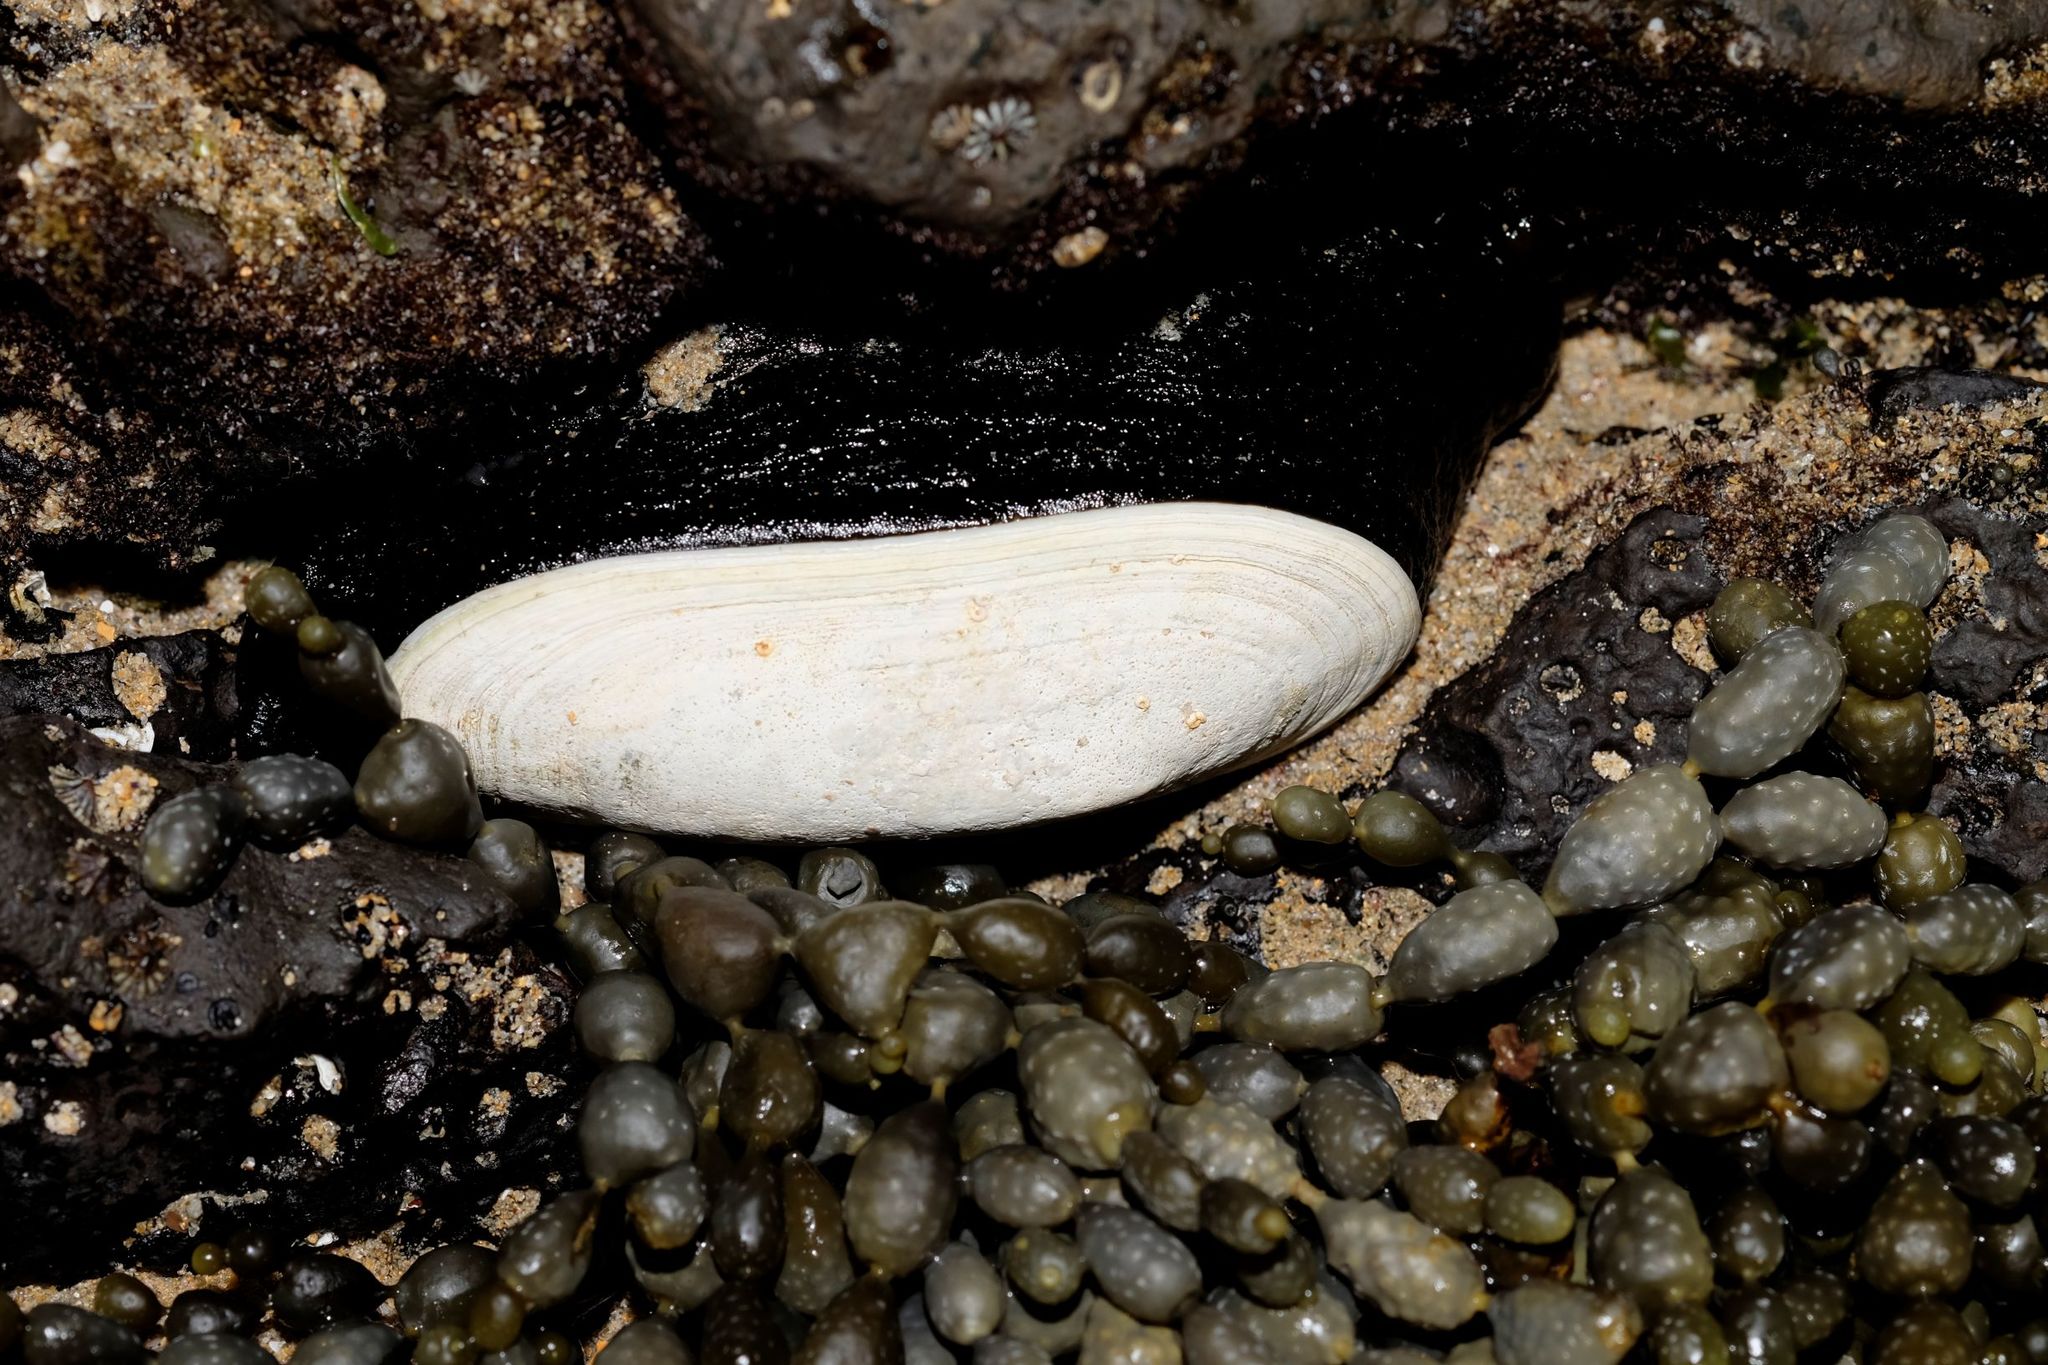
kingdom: Animalia
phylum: Mollusca
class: Gastropoda
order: Lepetellida
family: Fissurellidae
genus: Scutus
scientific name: Scutus antipodes
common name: Duckbill shell
